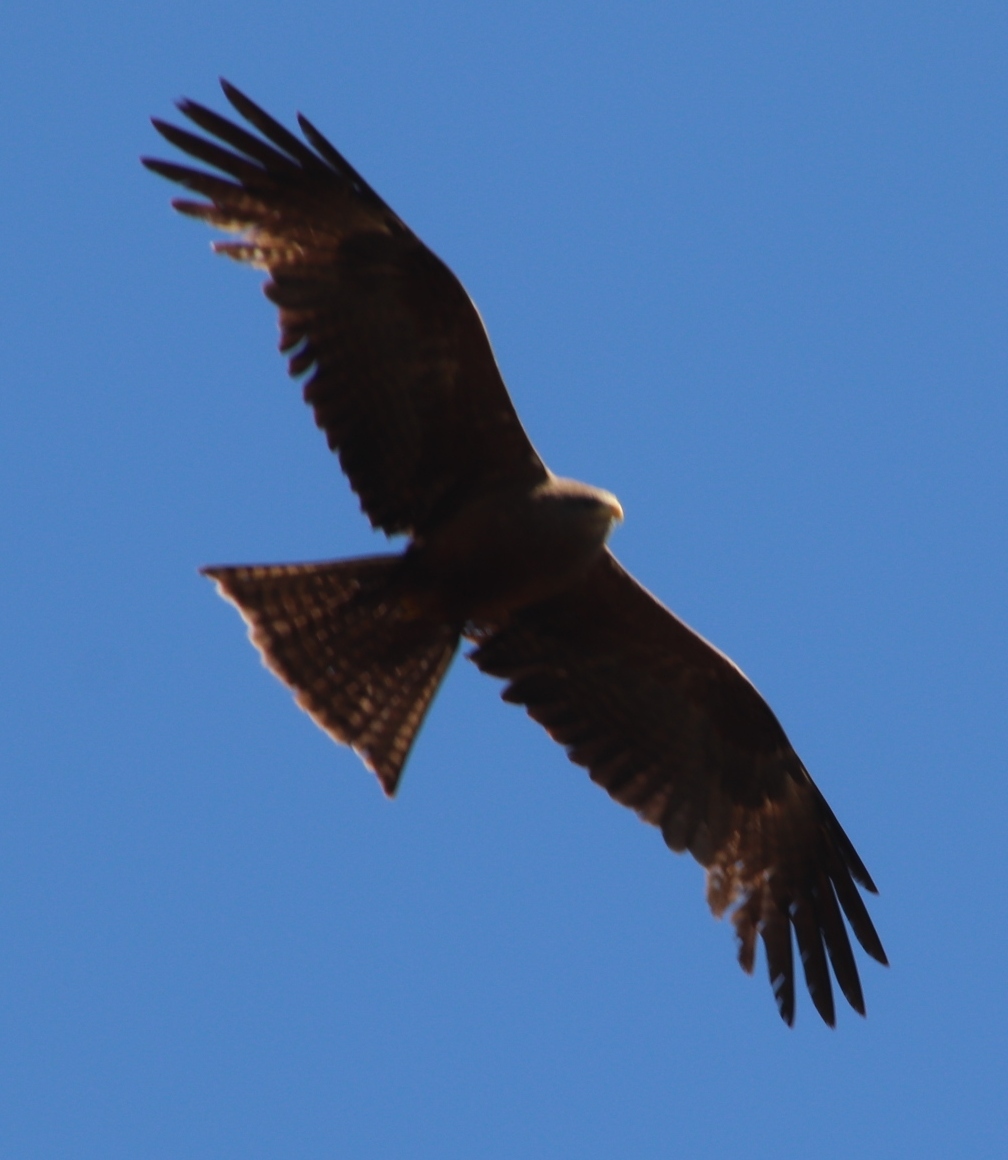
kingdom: Animalia
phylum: Chordata
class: Aves
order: Accipitriformes
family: Accipitridae
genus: Milvus
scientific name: Milvus migrans
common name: Black kite
